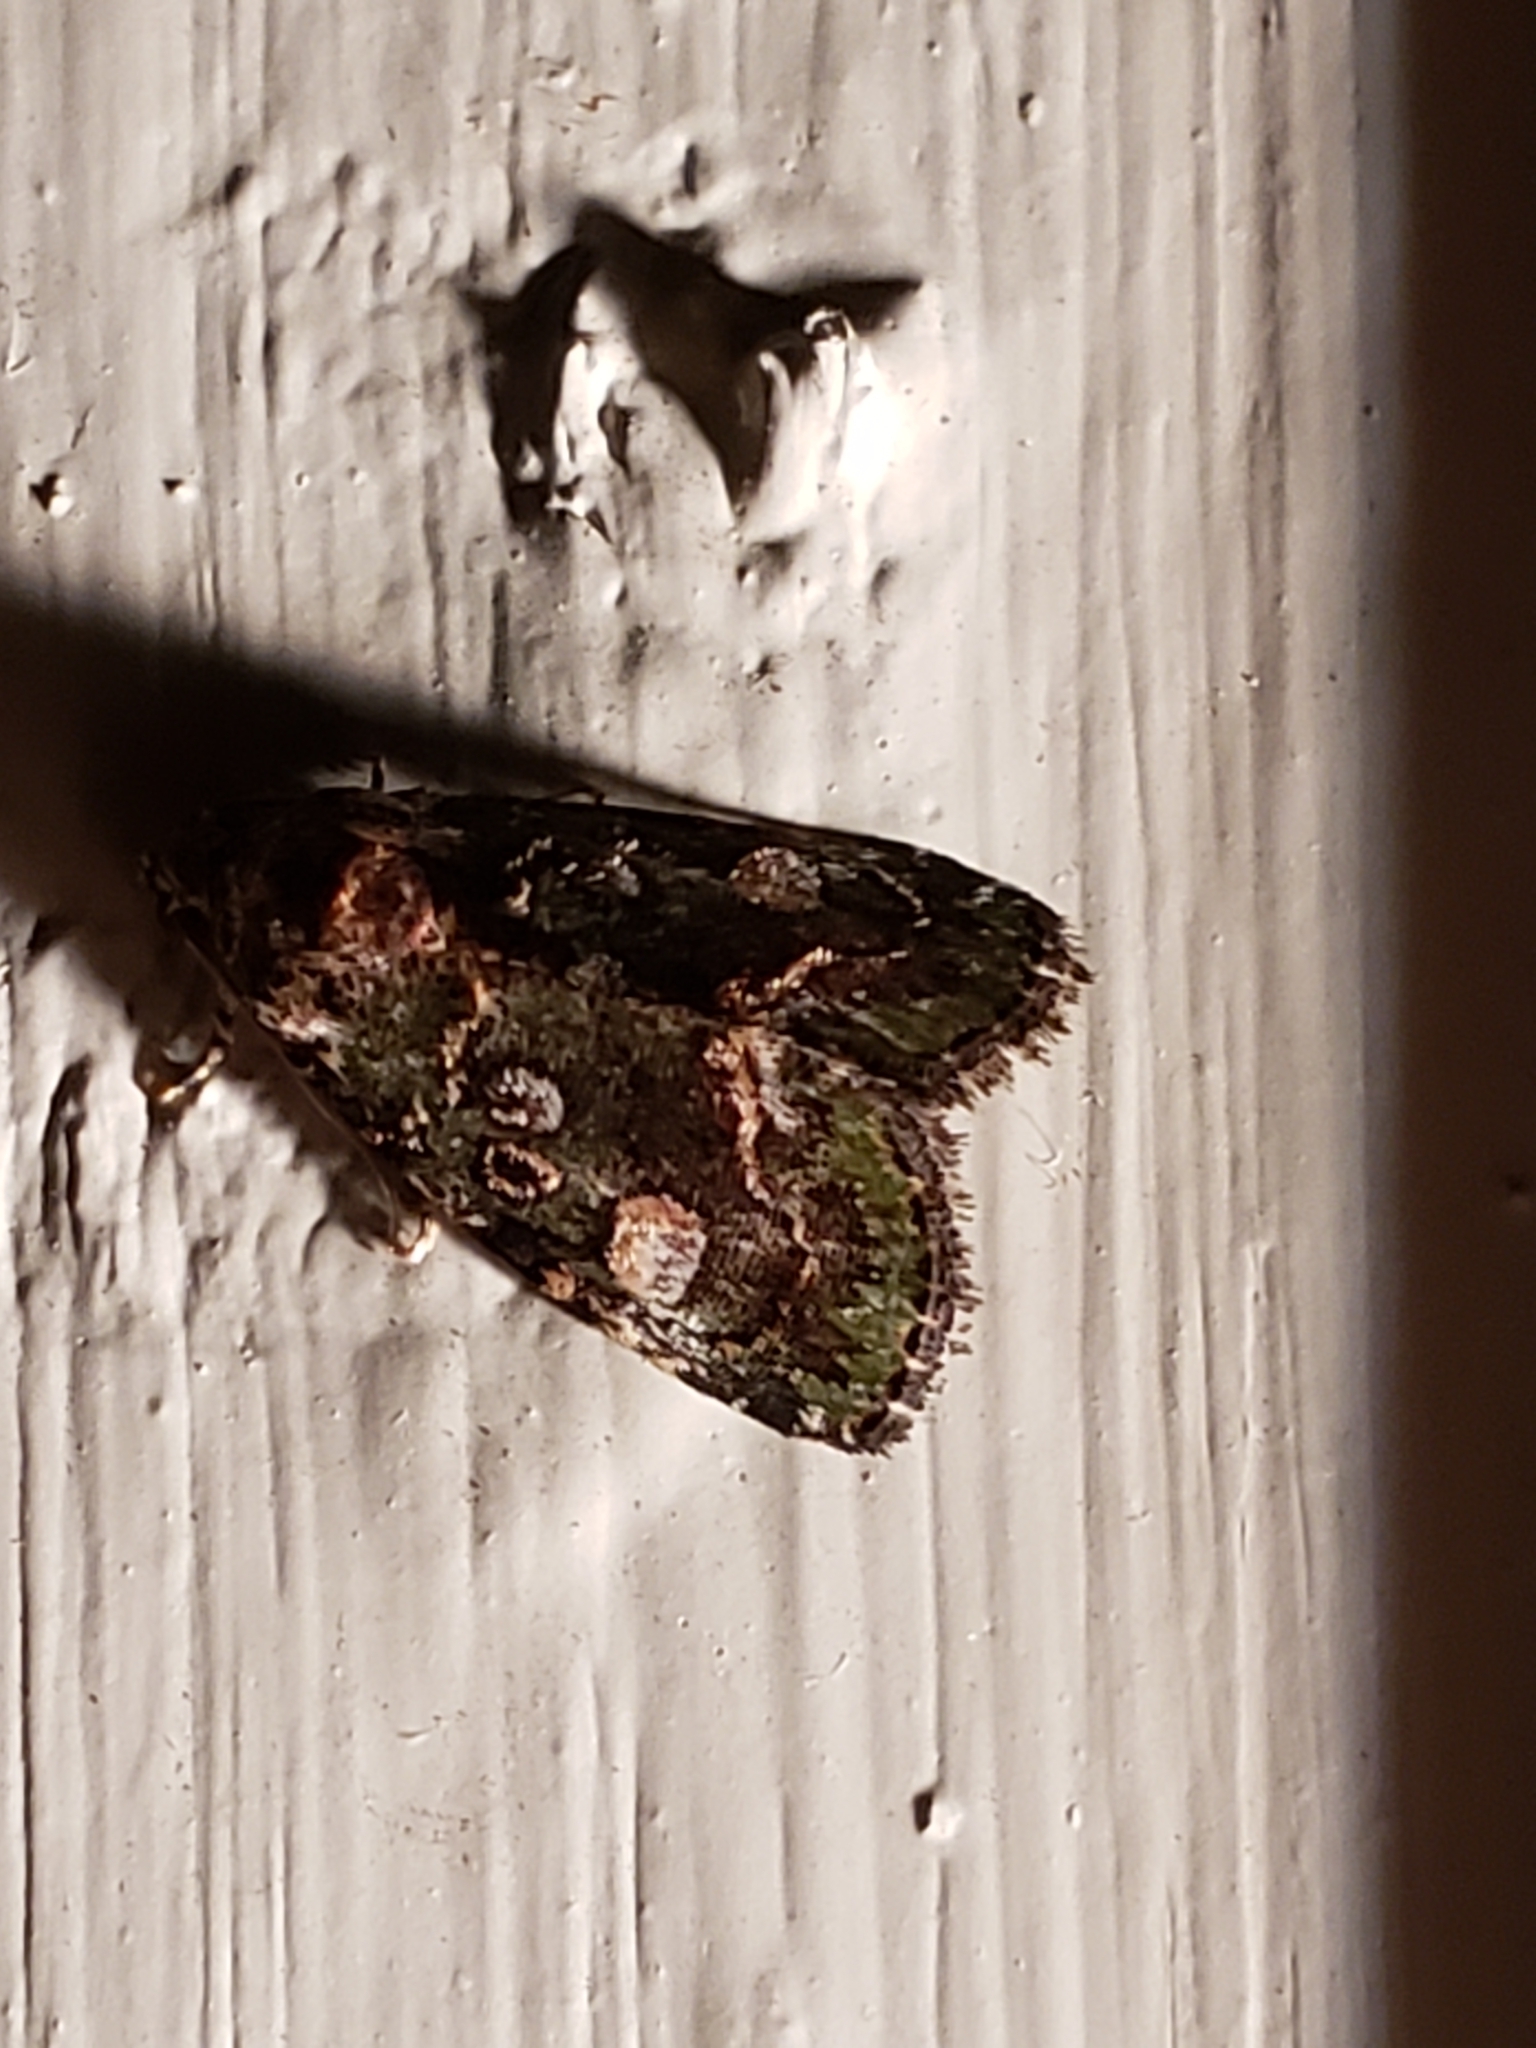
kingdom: Animalia
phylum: Arthropoda
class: Insecta
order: Lepidoptera
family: Noctuidae
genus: Lithacodia
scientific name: Lithacodia musta
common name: Small mossy glyph
